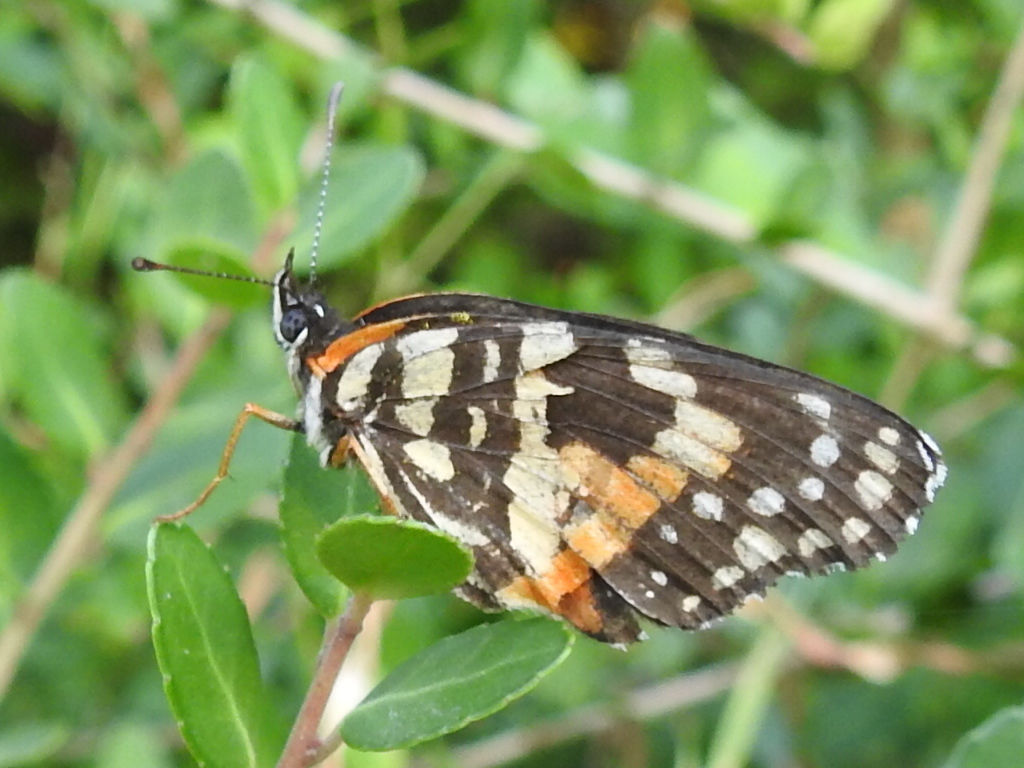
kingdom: Animalia
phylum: Arthropoda
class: Insecta
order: Lepidoptera
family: Nymphalidae
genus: Chlosyne
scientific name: Chlosyne lacinia
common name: Bordered patch
